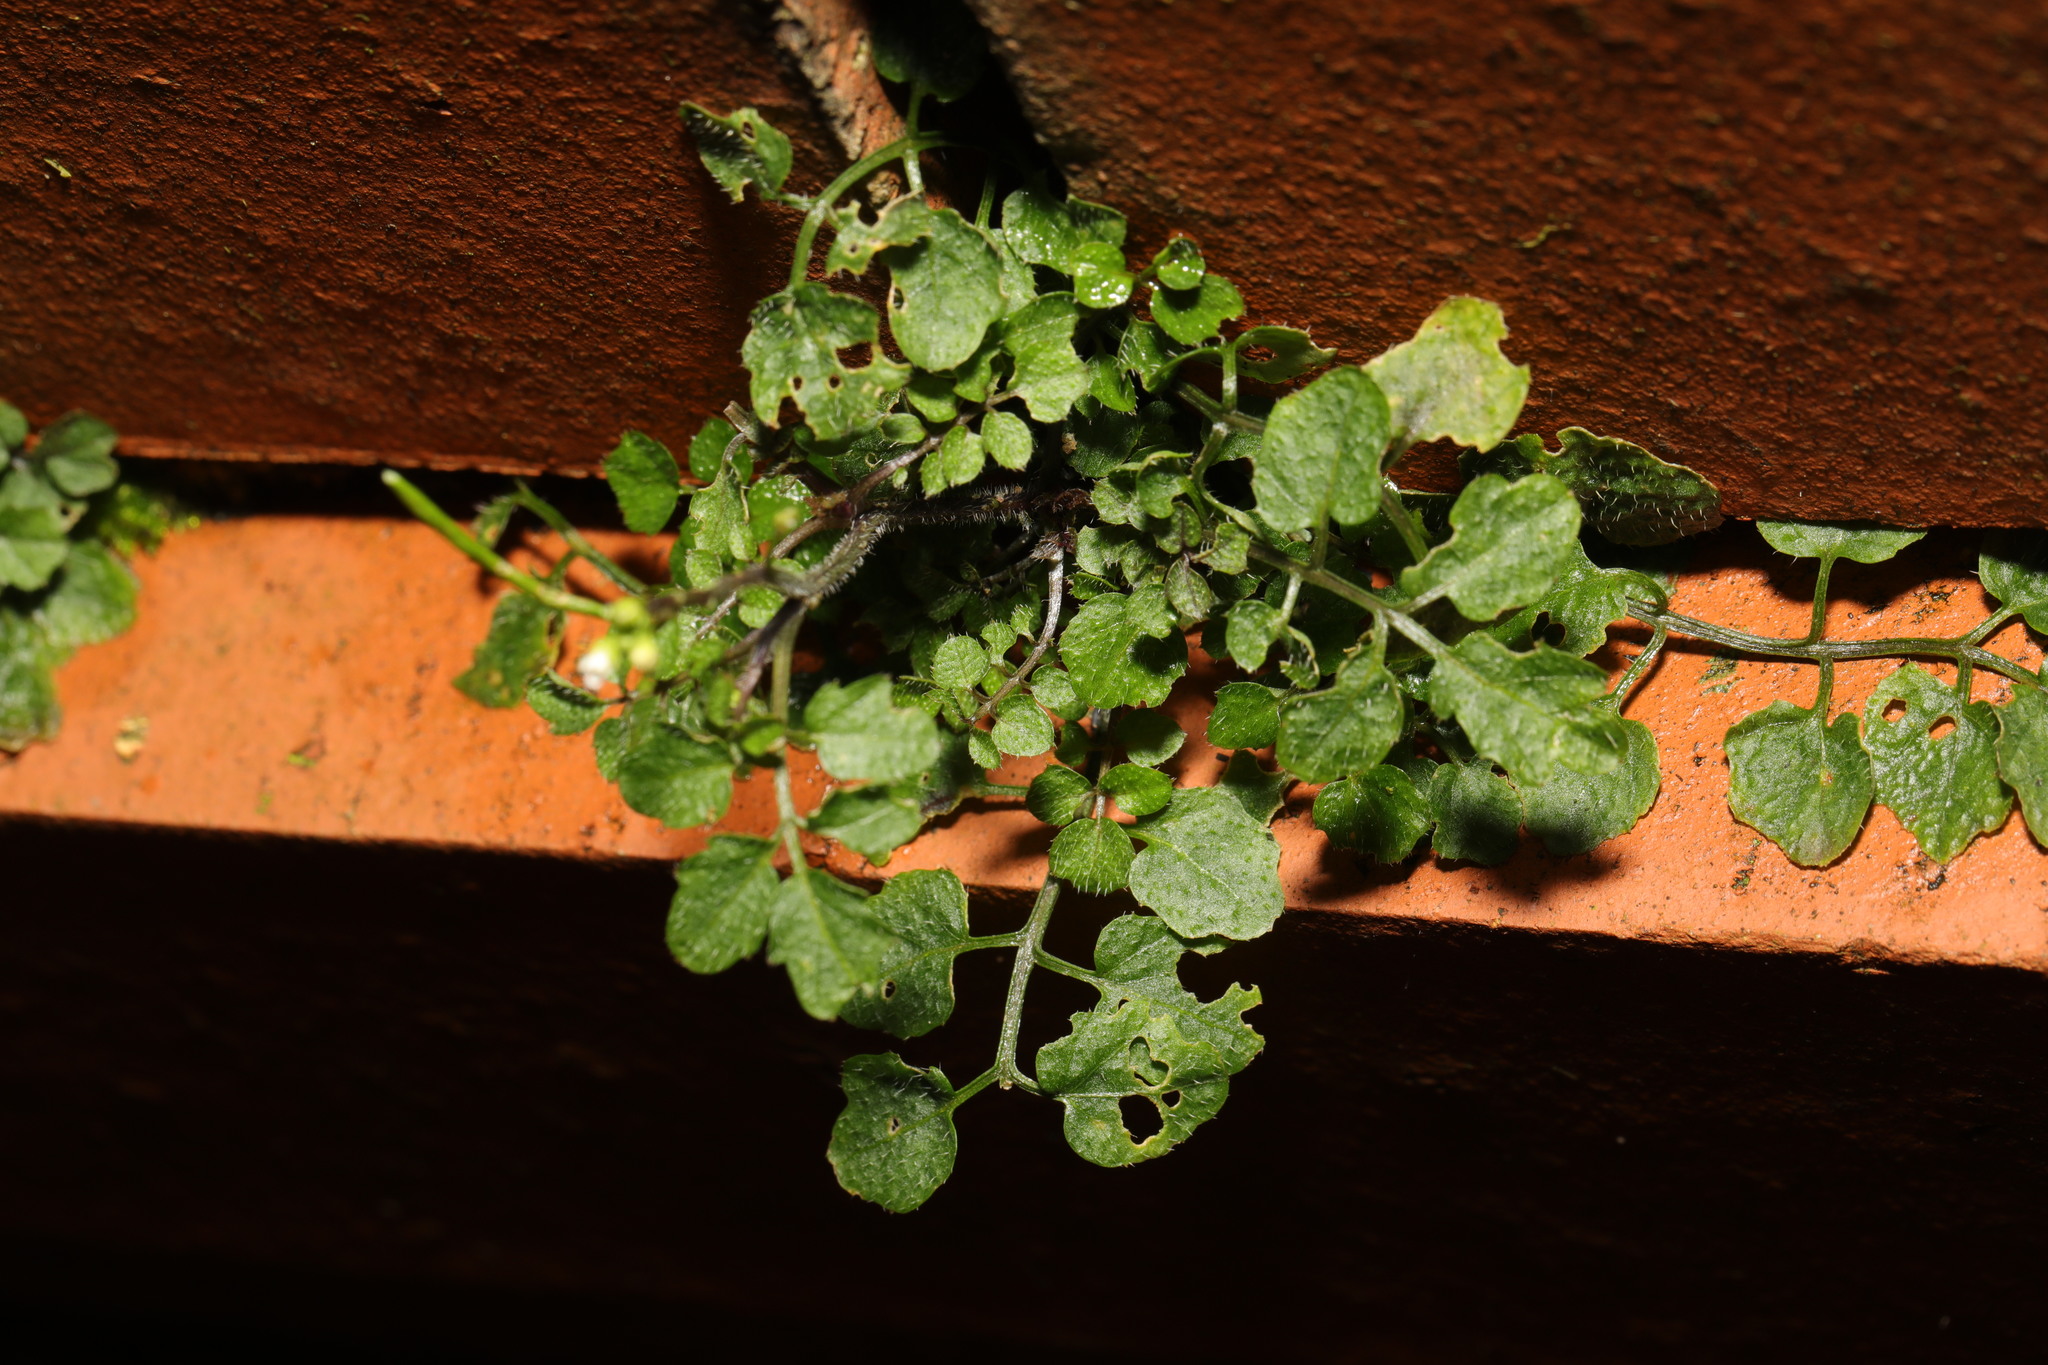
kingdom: Plantae
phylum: Tracheophyta
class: Magnoliopsida
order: Brassicales
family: Brassicaceae
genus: Cardamine
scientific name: Cardamine flexuosa
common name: Woodland bittercress
